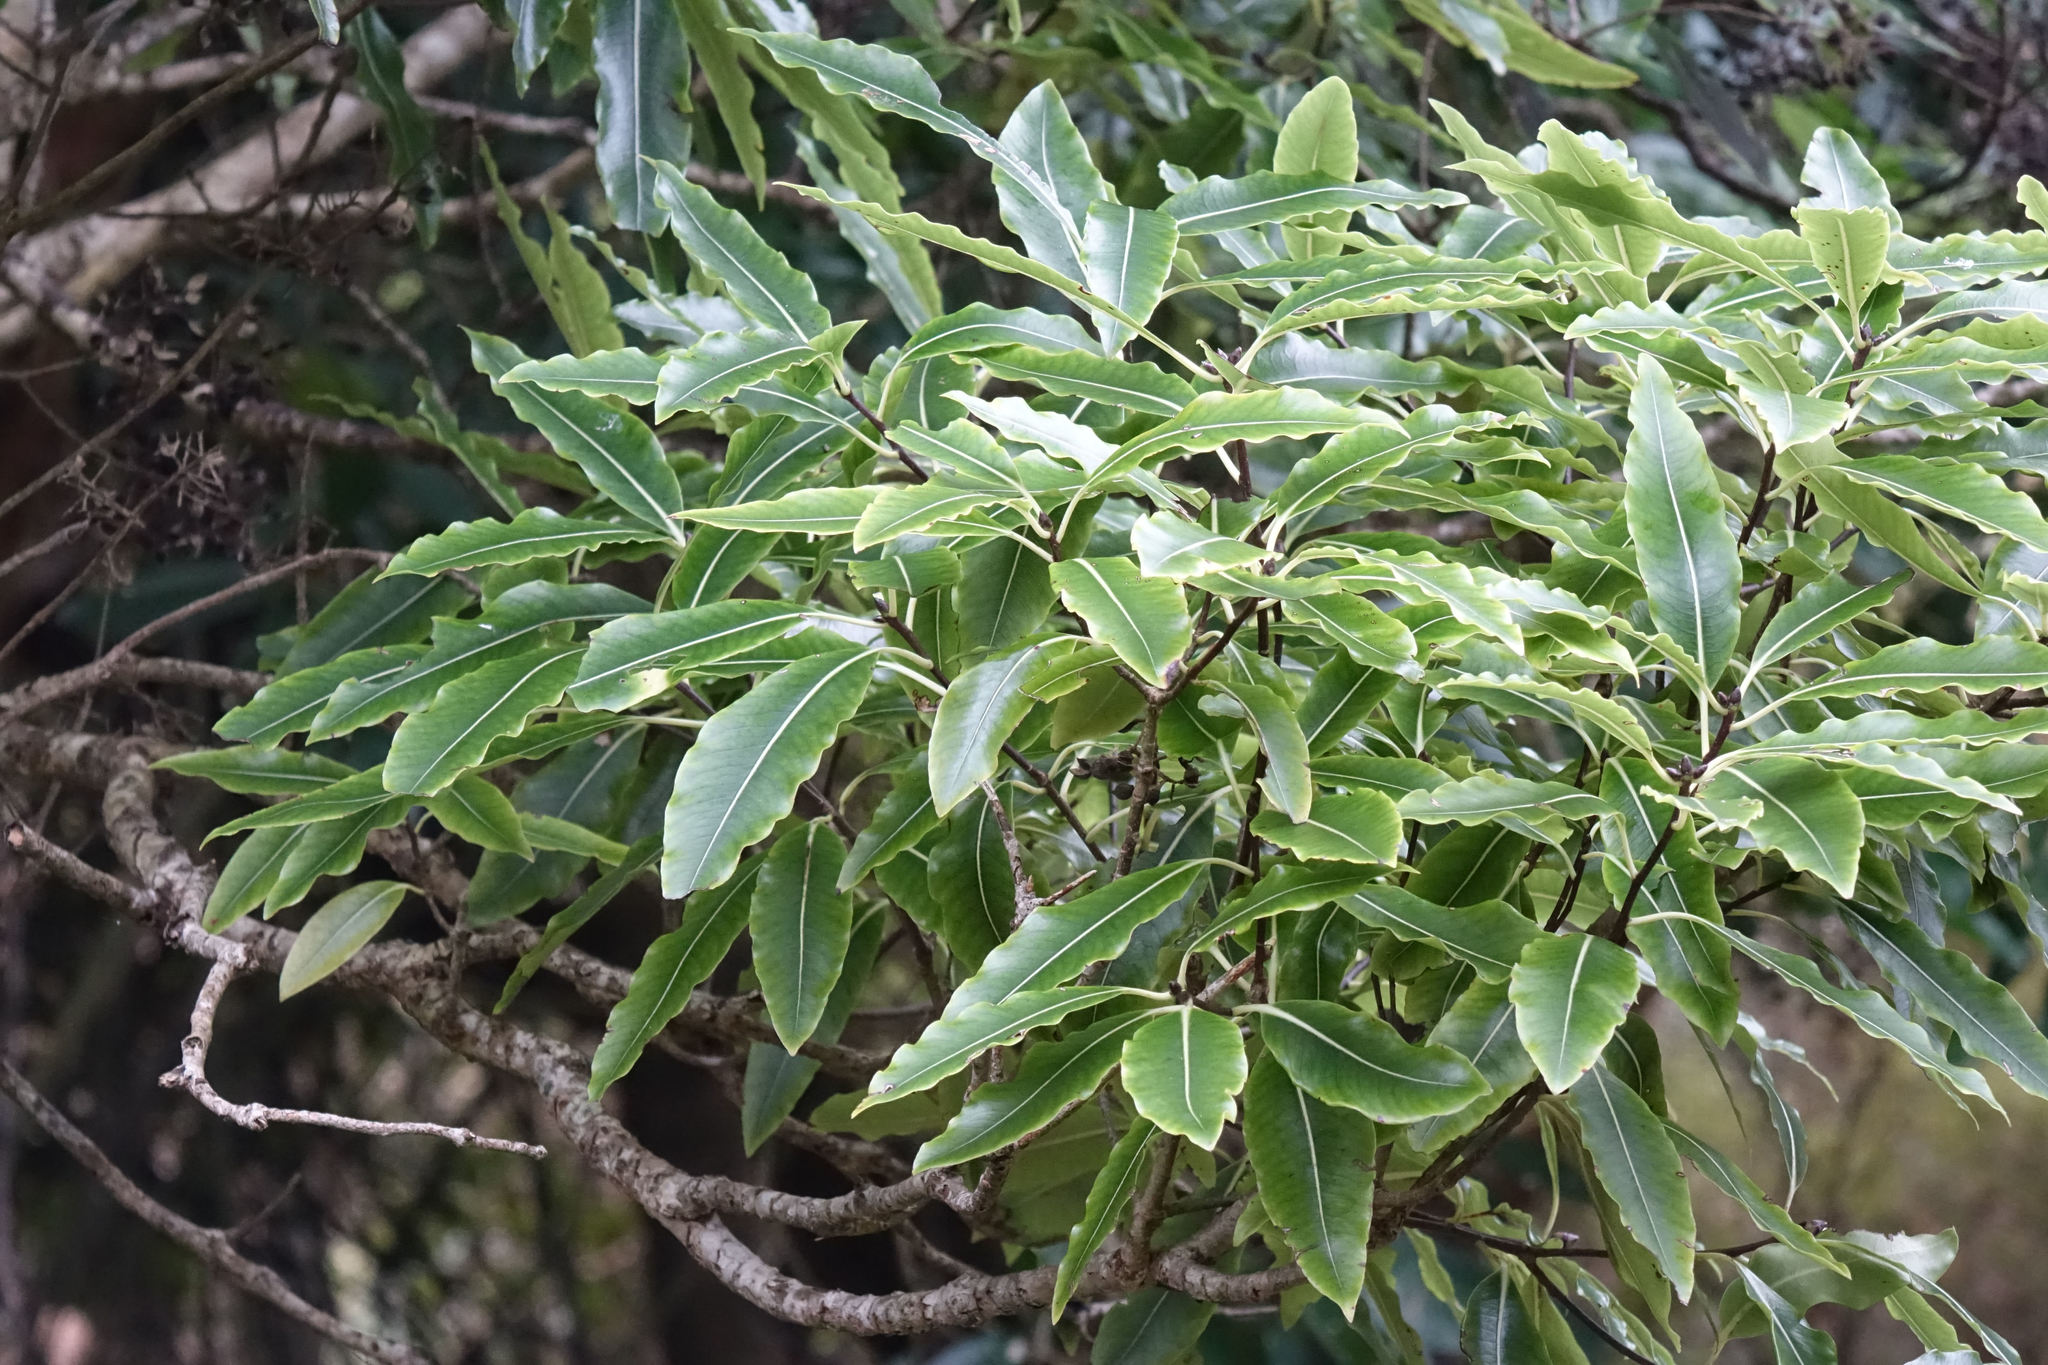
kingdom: Plantae
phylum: Tracheophyta
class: Magnoliopsida
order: Apiales
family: Pittosporaceae
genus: Pittosporum
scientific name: Pittosporum eugenioides
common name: Lemonwood
